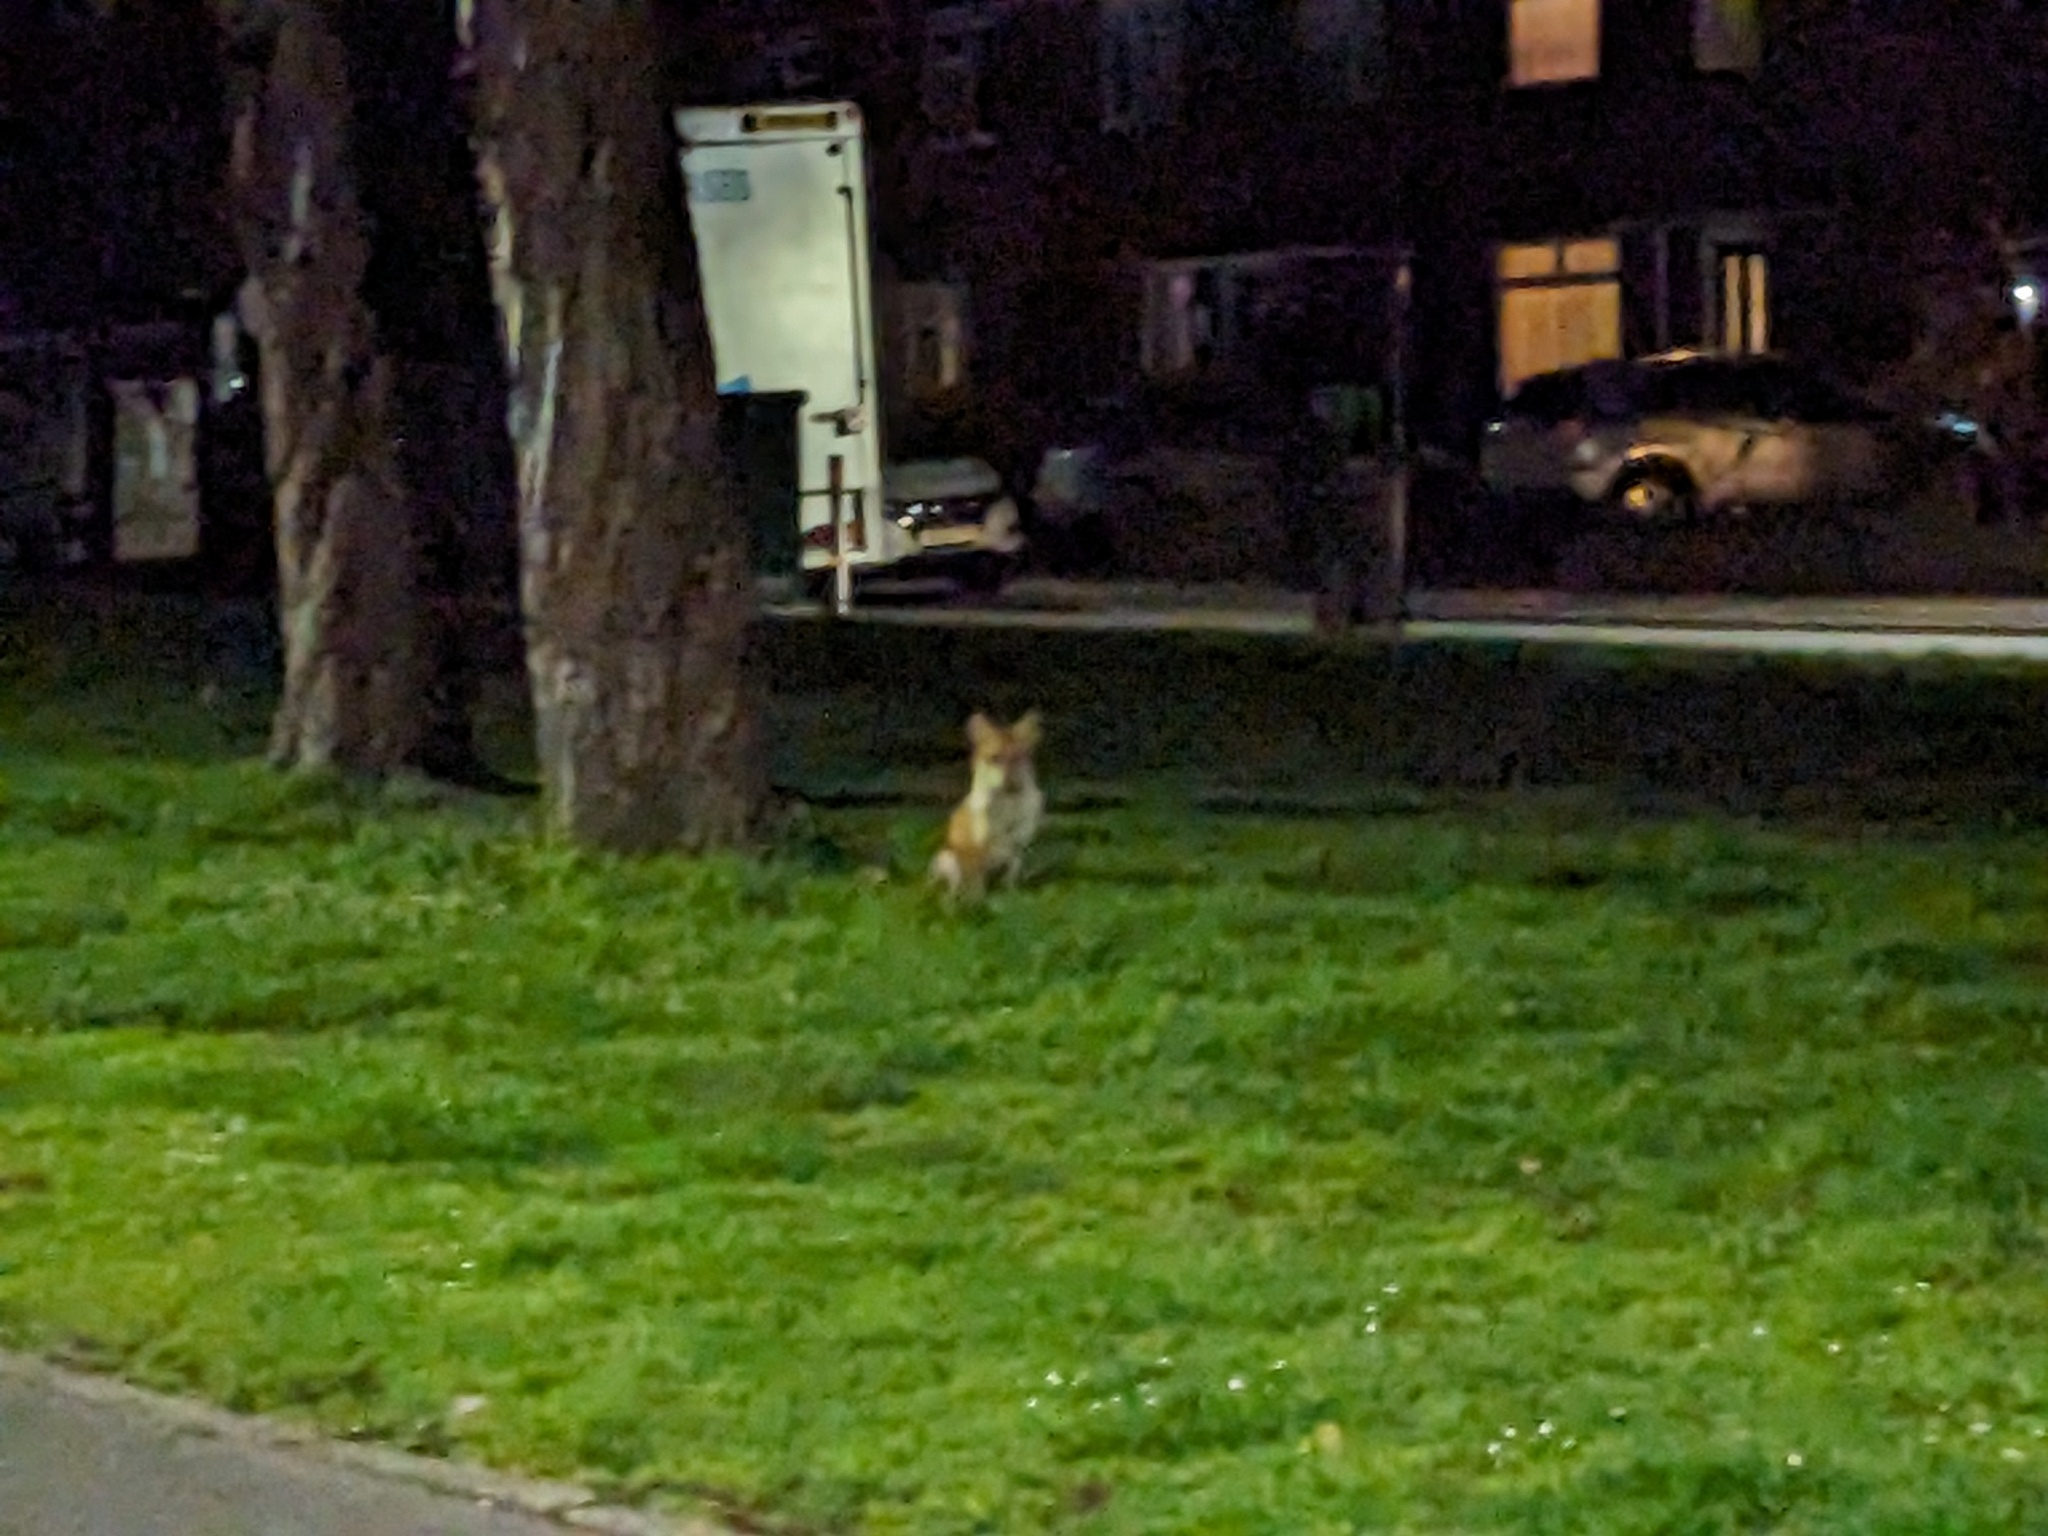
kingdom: Animalia
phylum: Chordata
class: Mammalia
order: Carnivora
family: Canidae
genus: Vulpes
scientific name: Vulpes vulpes
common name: Red fox
